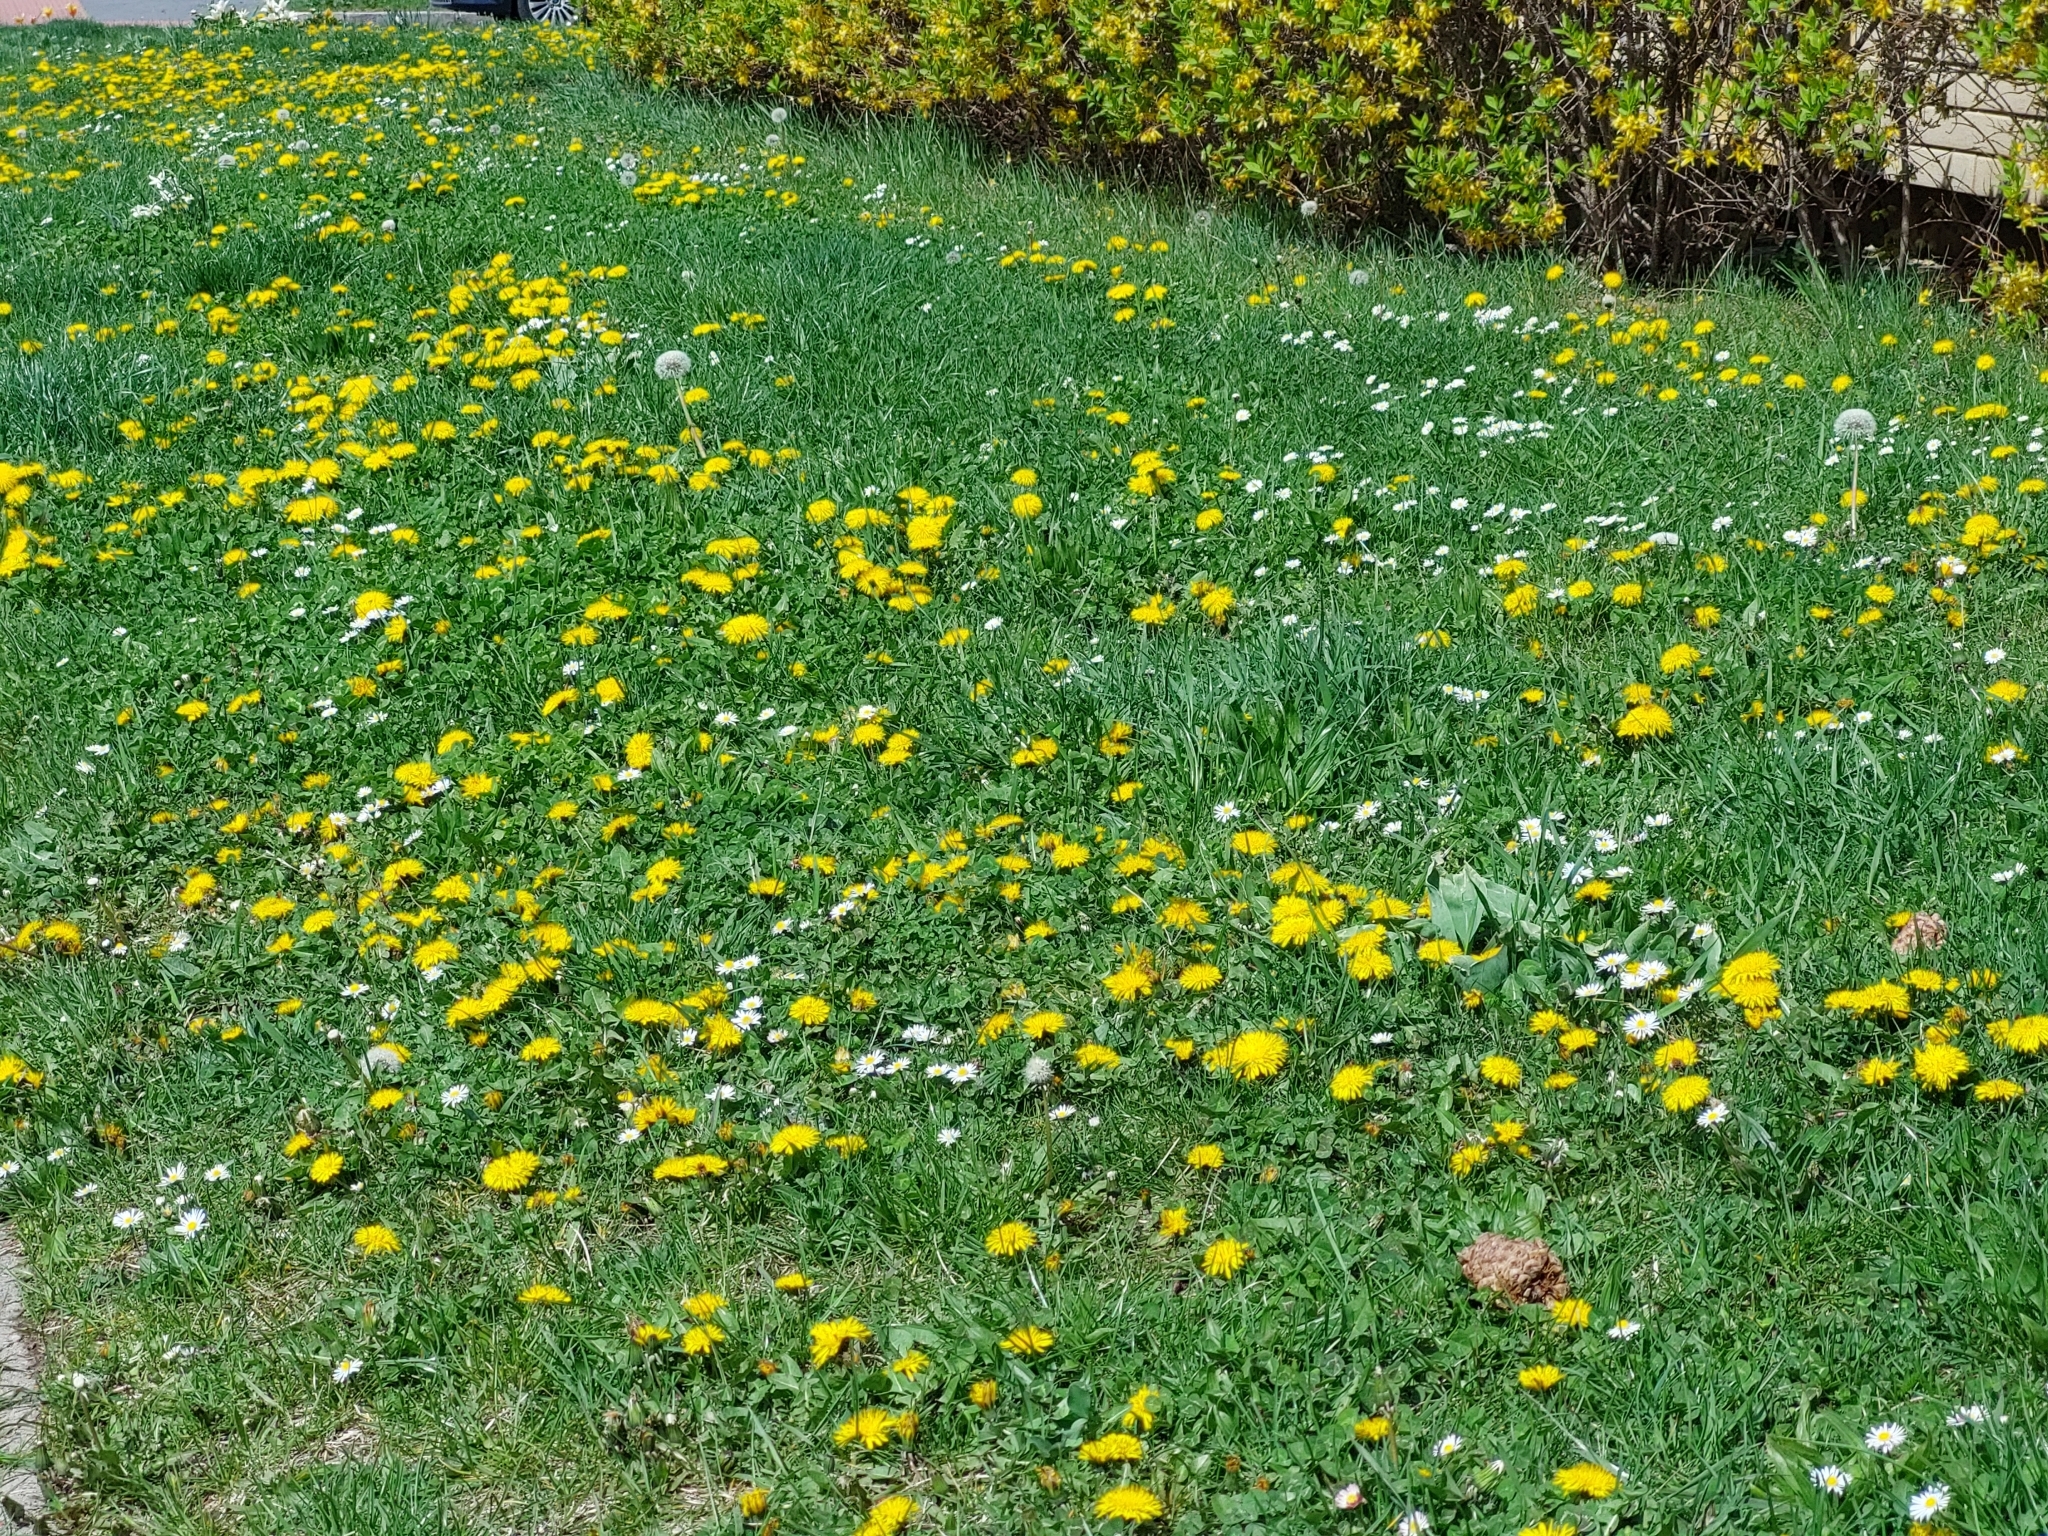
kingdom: Plantae
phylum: Tracheophyta
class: Magnoliopsida
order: Asterales
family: Asteraceae
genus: Taraxacum
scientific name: Taraxacum officinale
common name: Common dandelion
